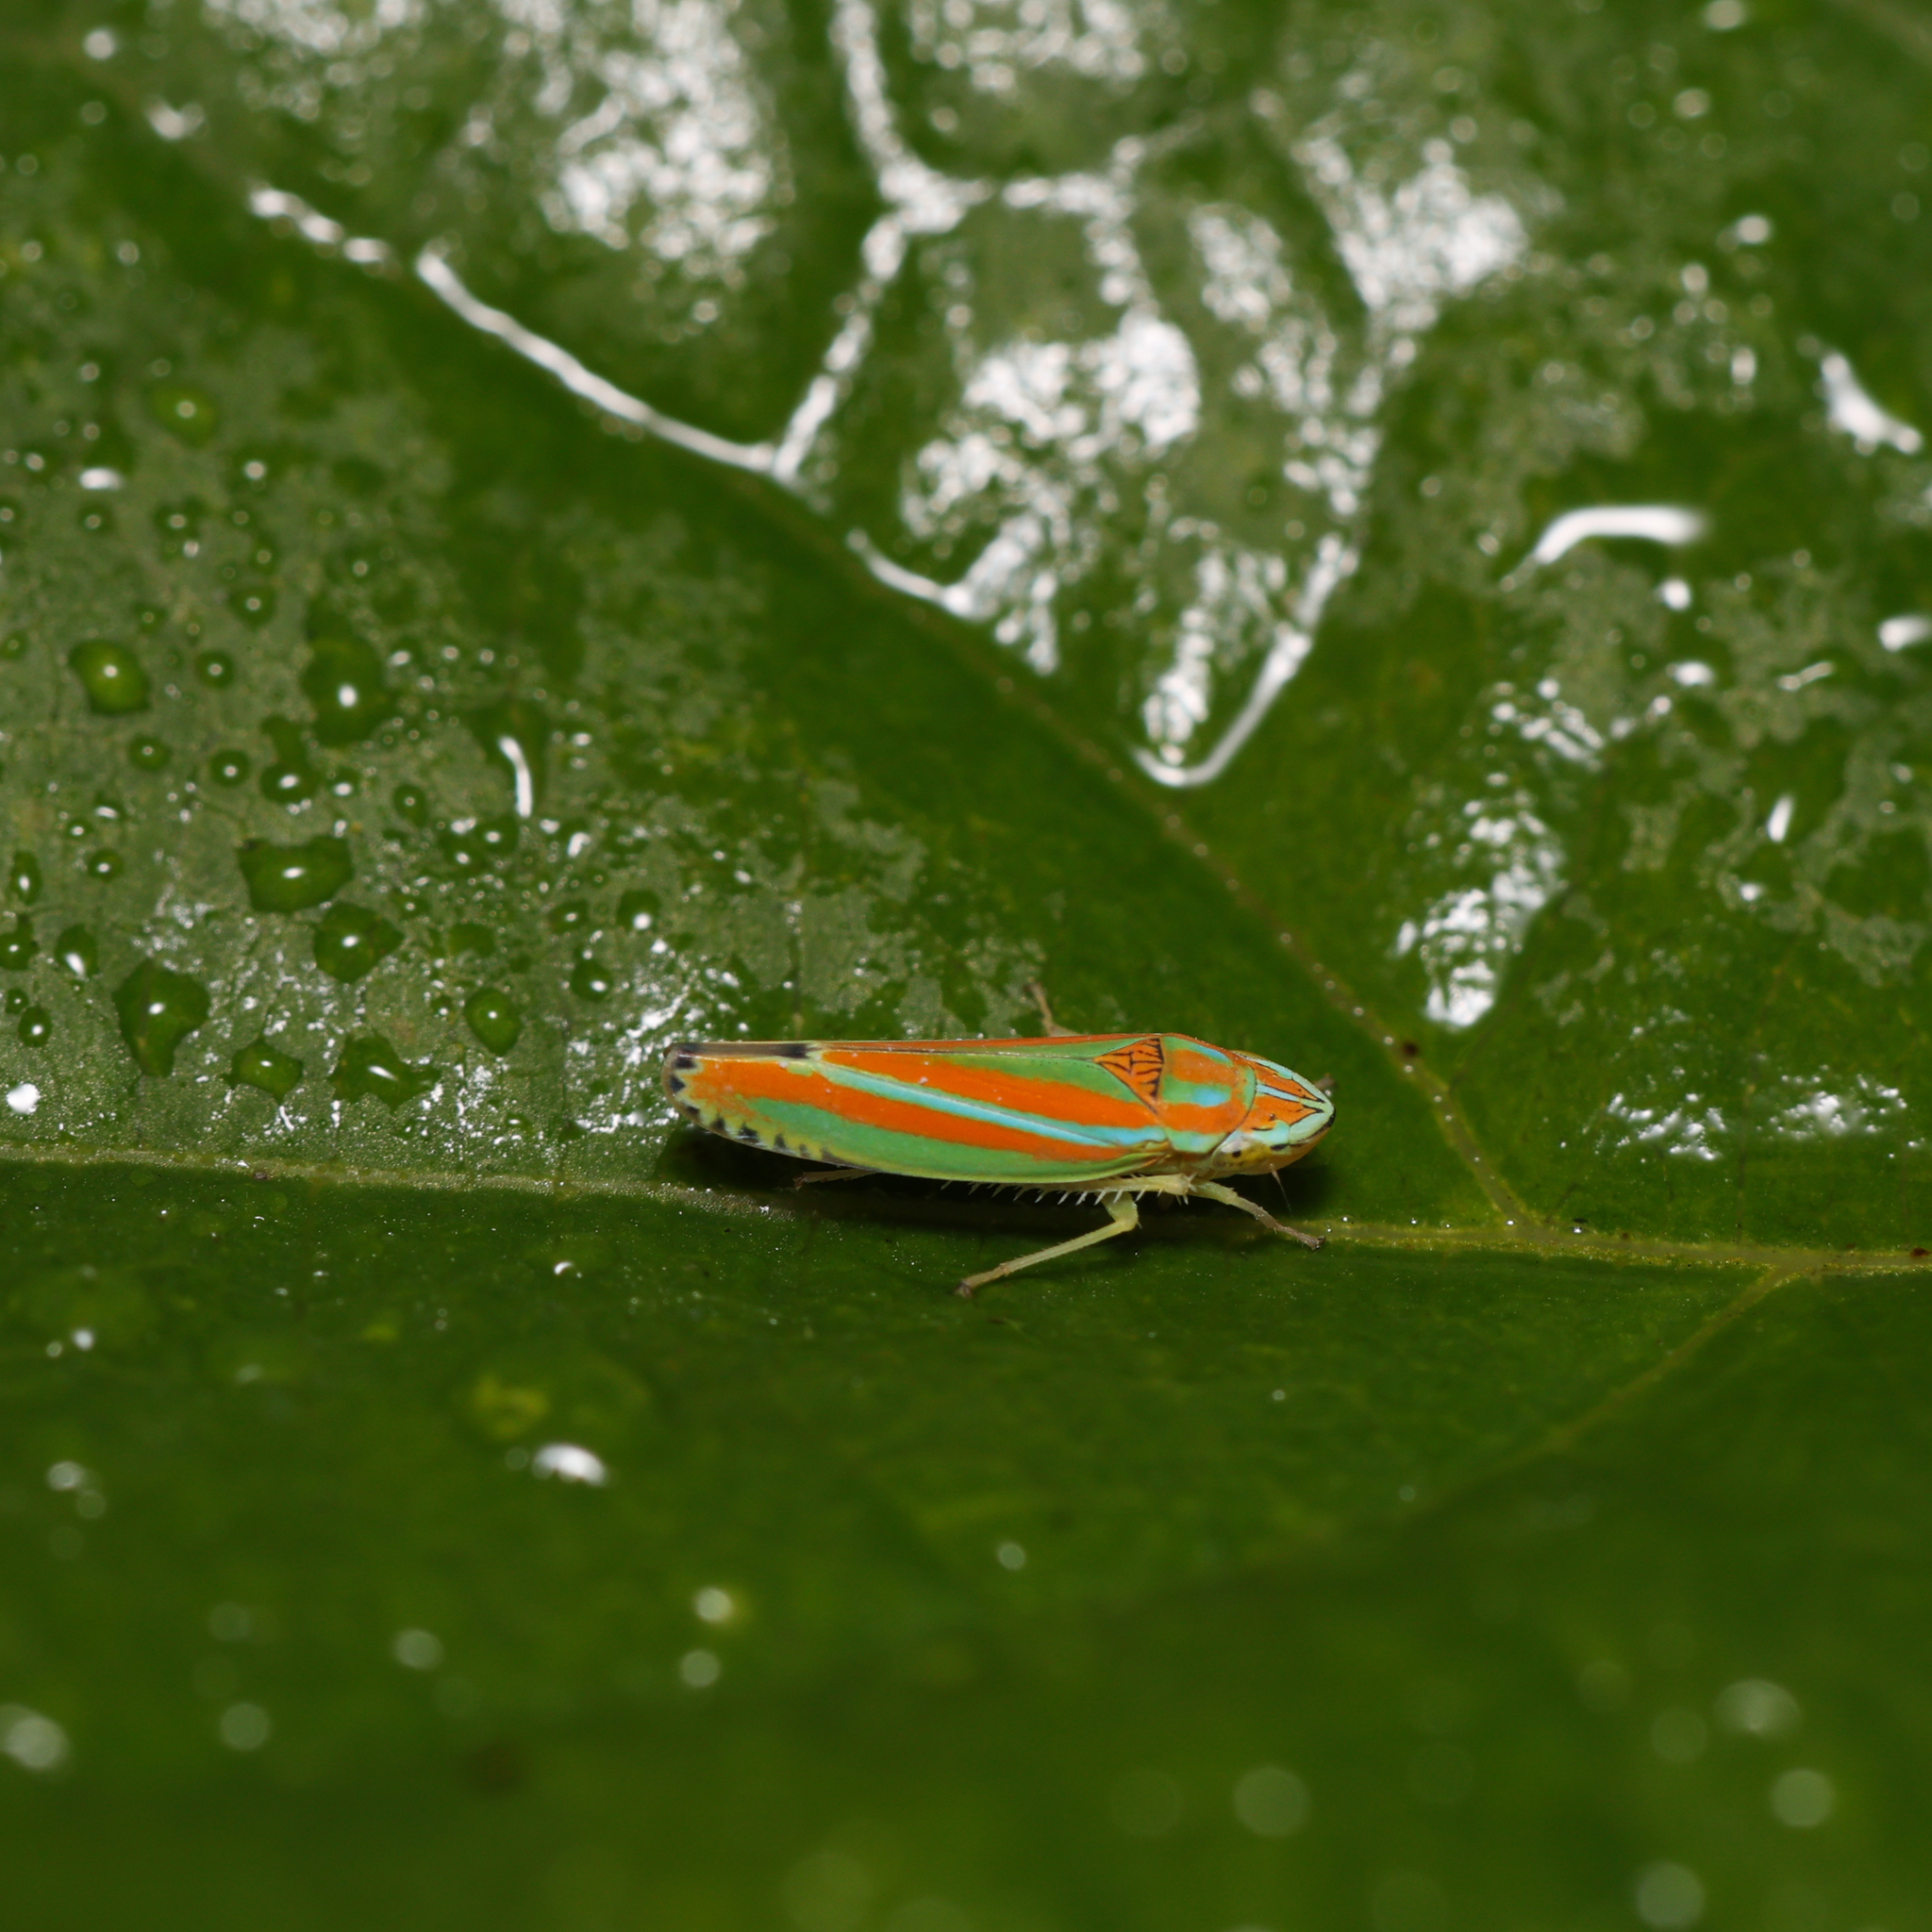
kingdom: Animalia
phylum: Arthropoda
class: Insecta
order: Hemiptera
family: Cicadellidae
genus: Graphocephala
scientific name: Graphocephala versuta
